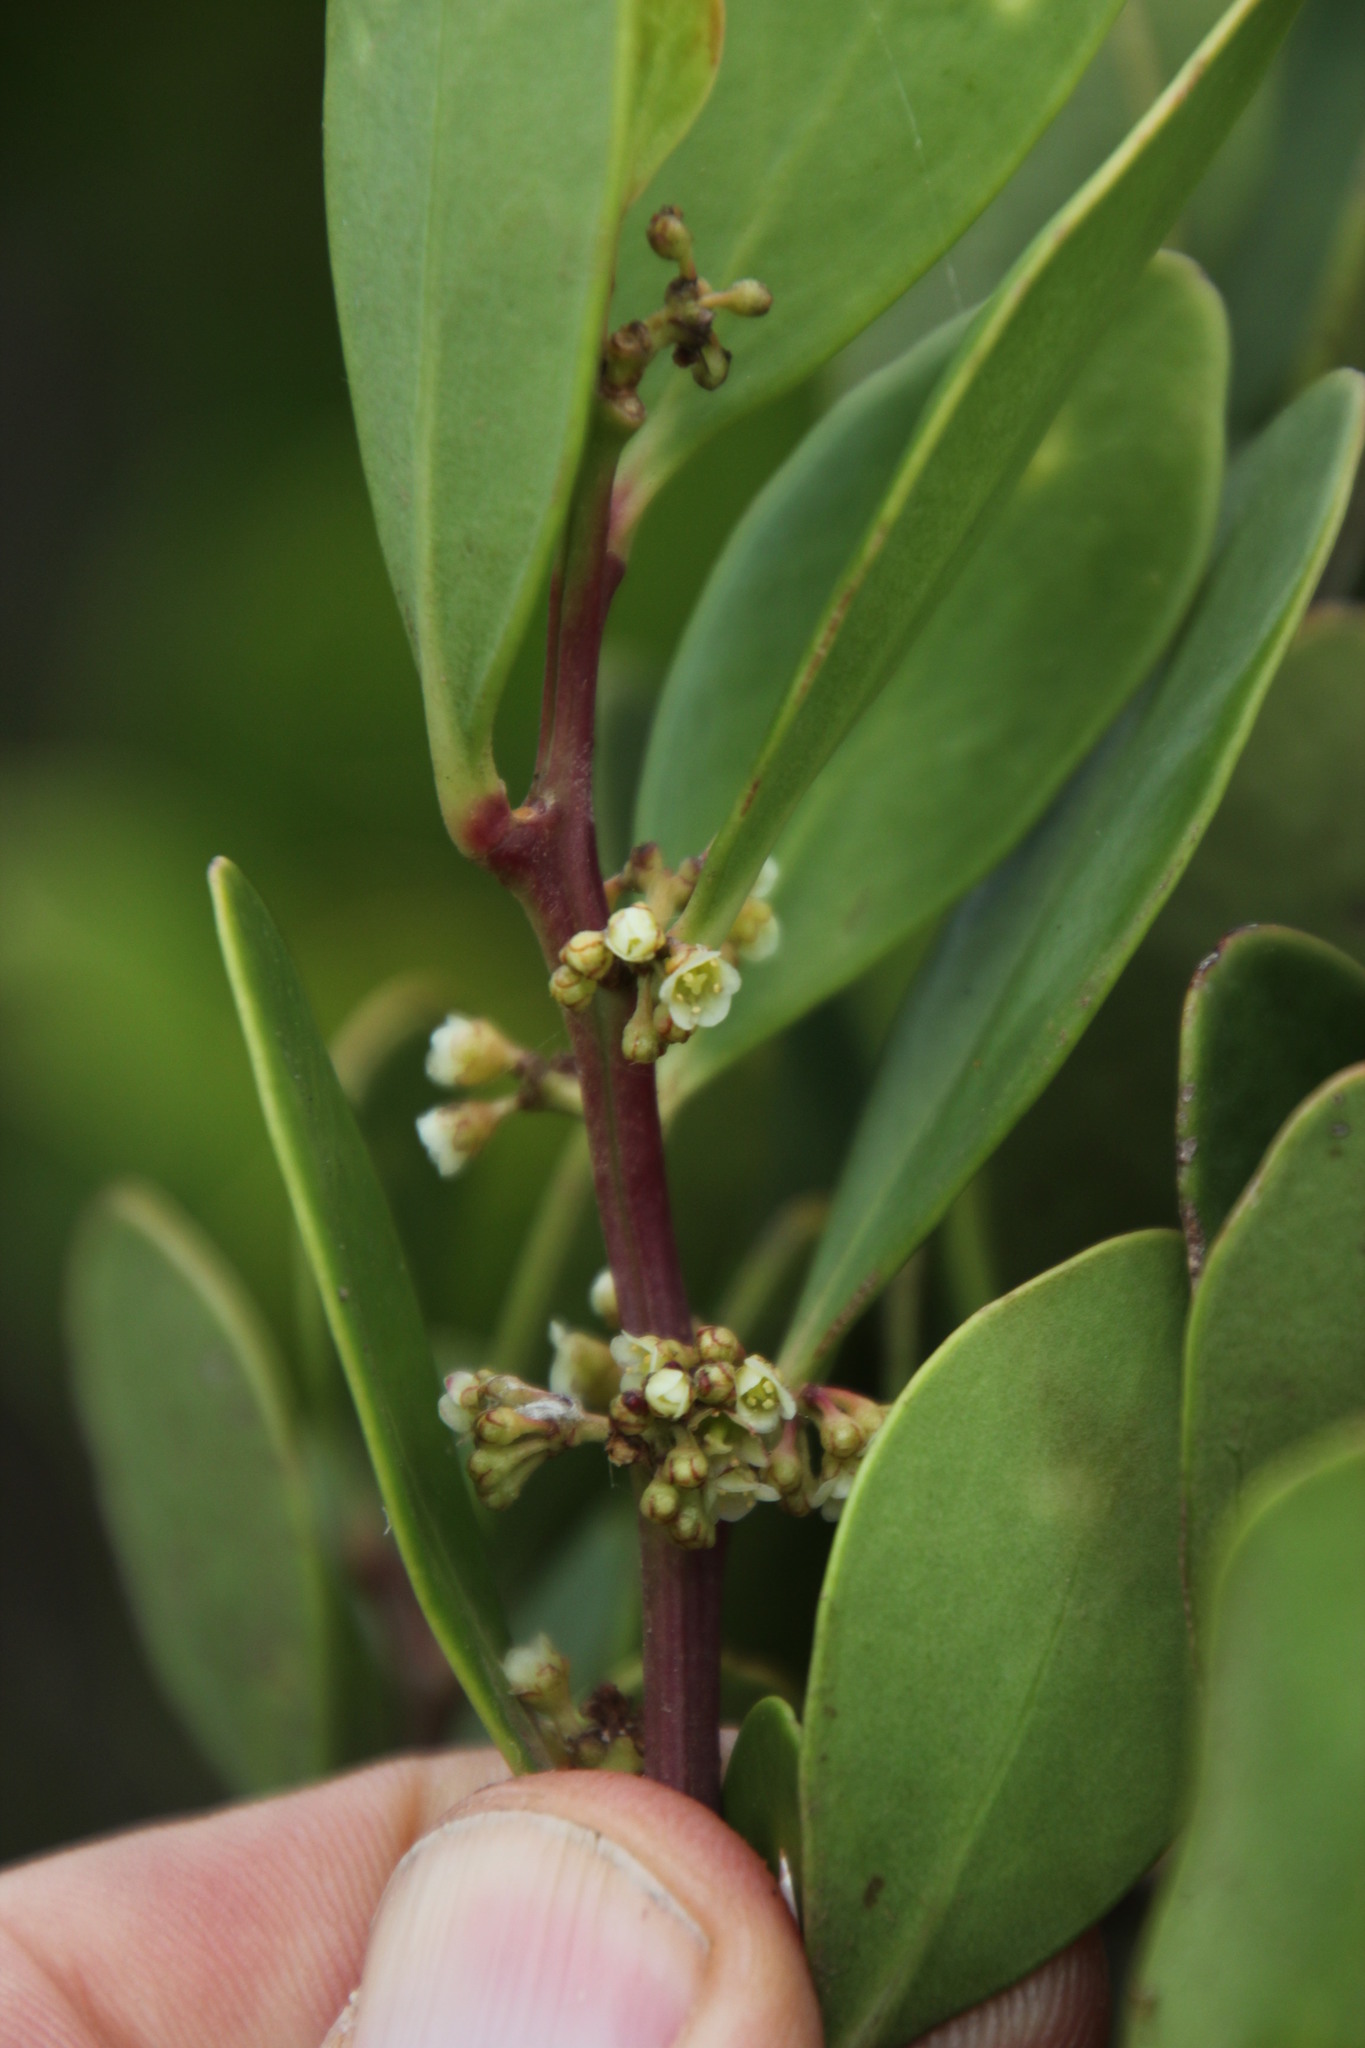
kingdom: Plantae
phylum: Tracheophyta
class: Magnoliopsida
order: Celastrales
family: Celastraceae
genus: Gymnosporia
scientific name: Gymnosporia laurina
